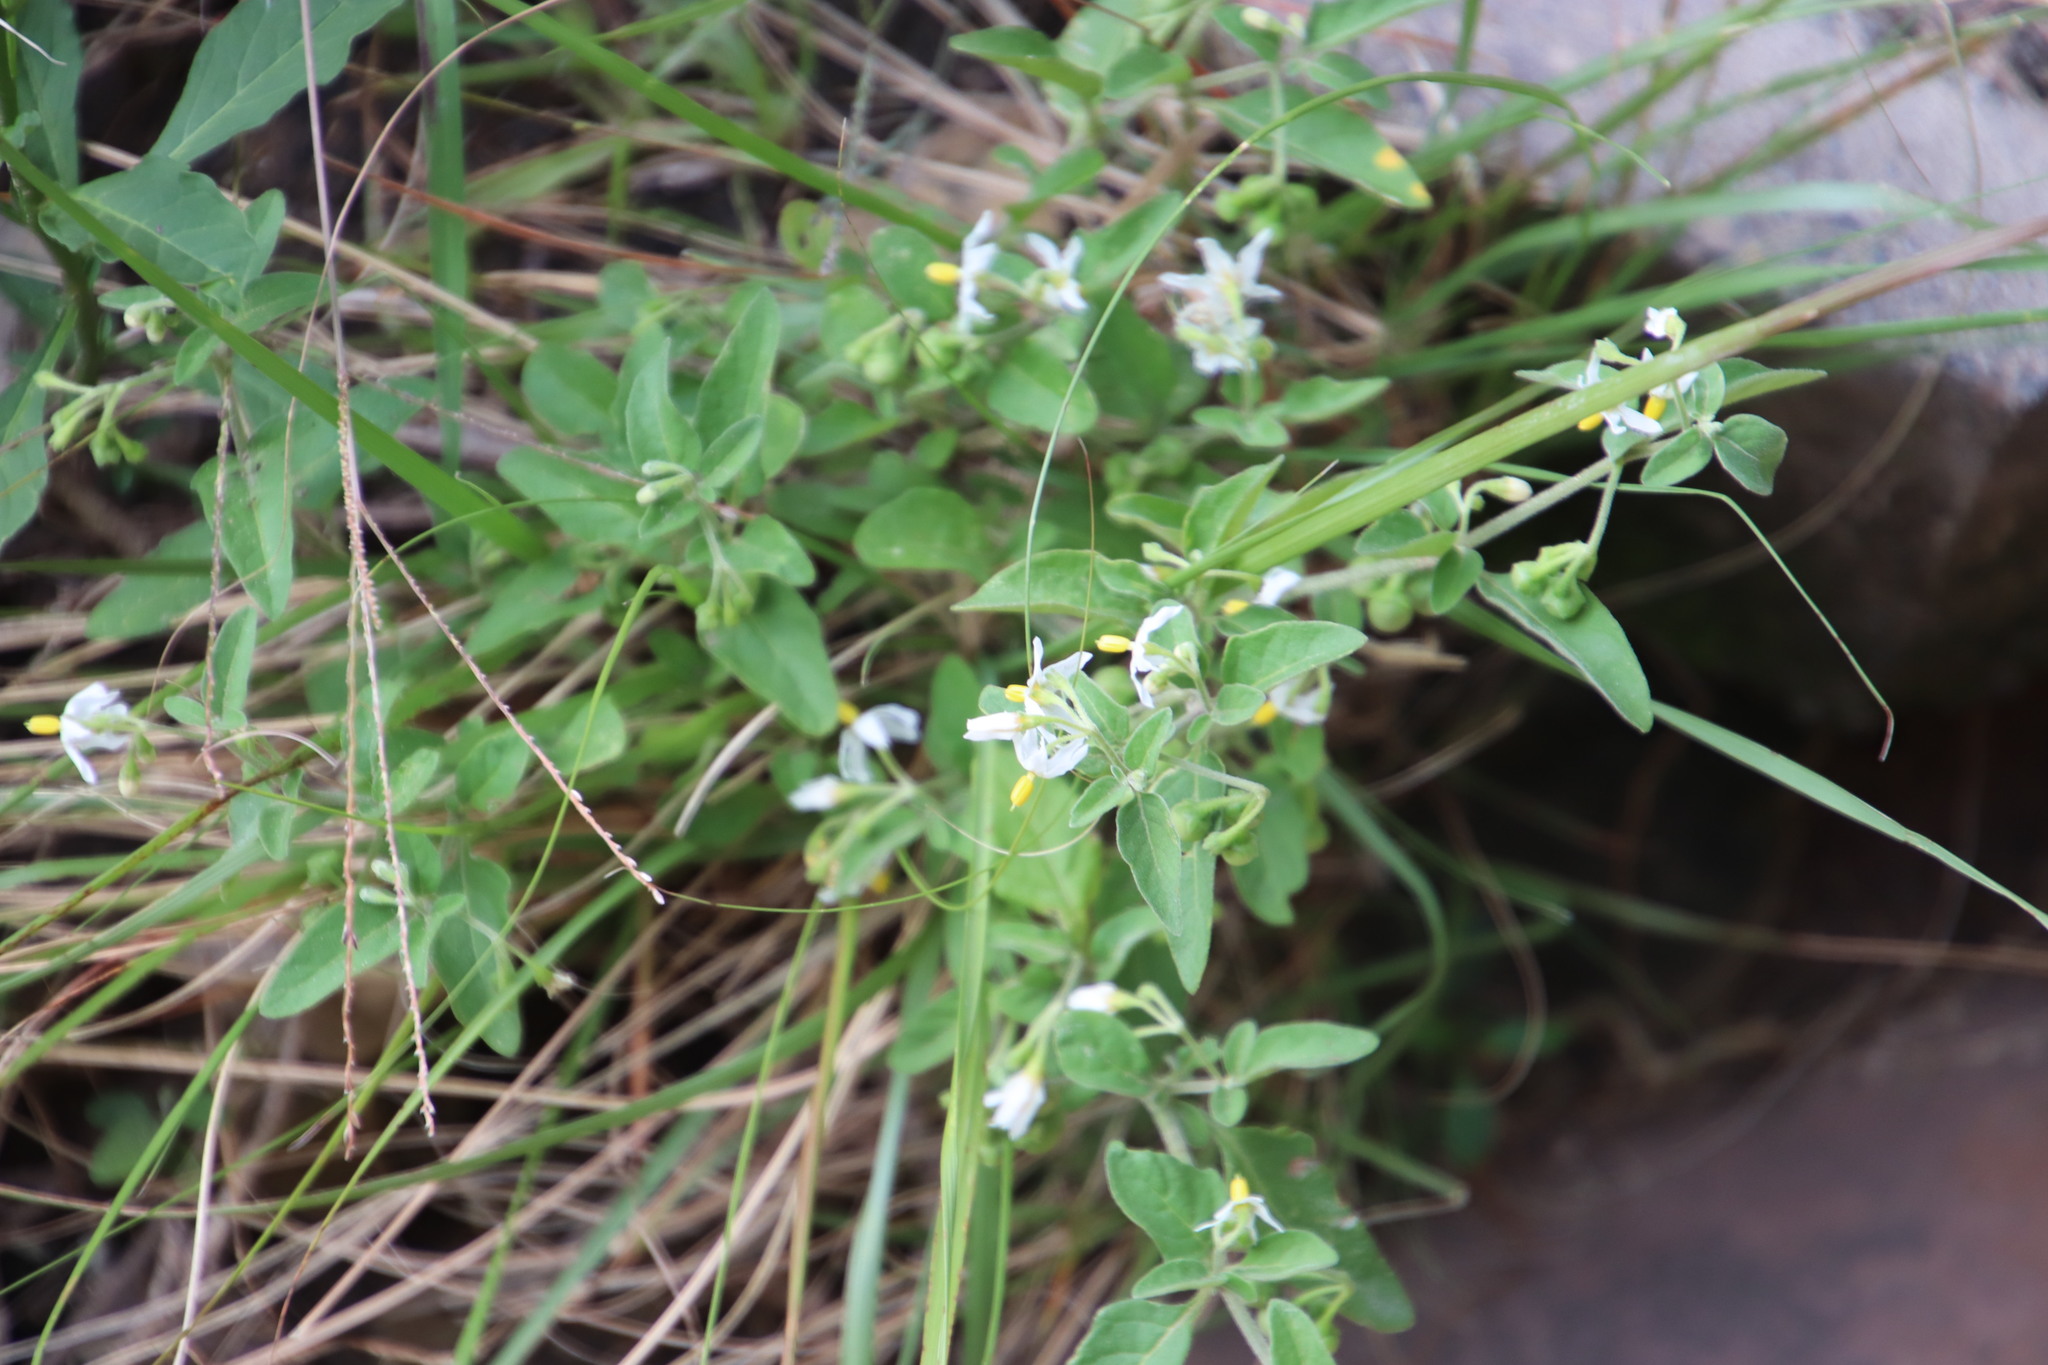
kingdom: Plantae
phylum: Tracheophyta
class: Magnoliopsida
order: Solanales
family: Solanaceae
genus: Solanum
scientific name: Solanum chenopodioides
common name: Tall nightshade
